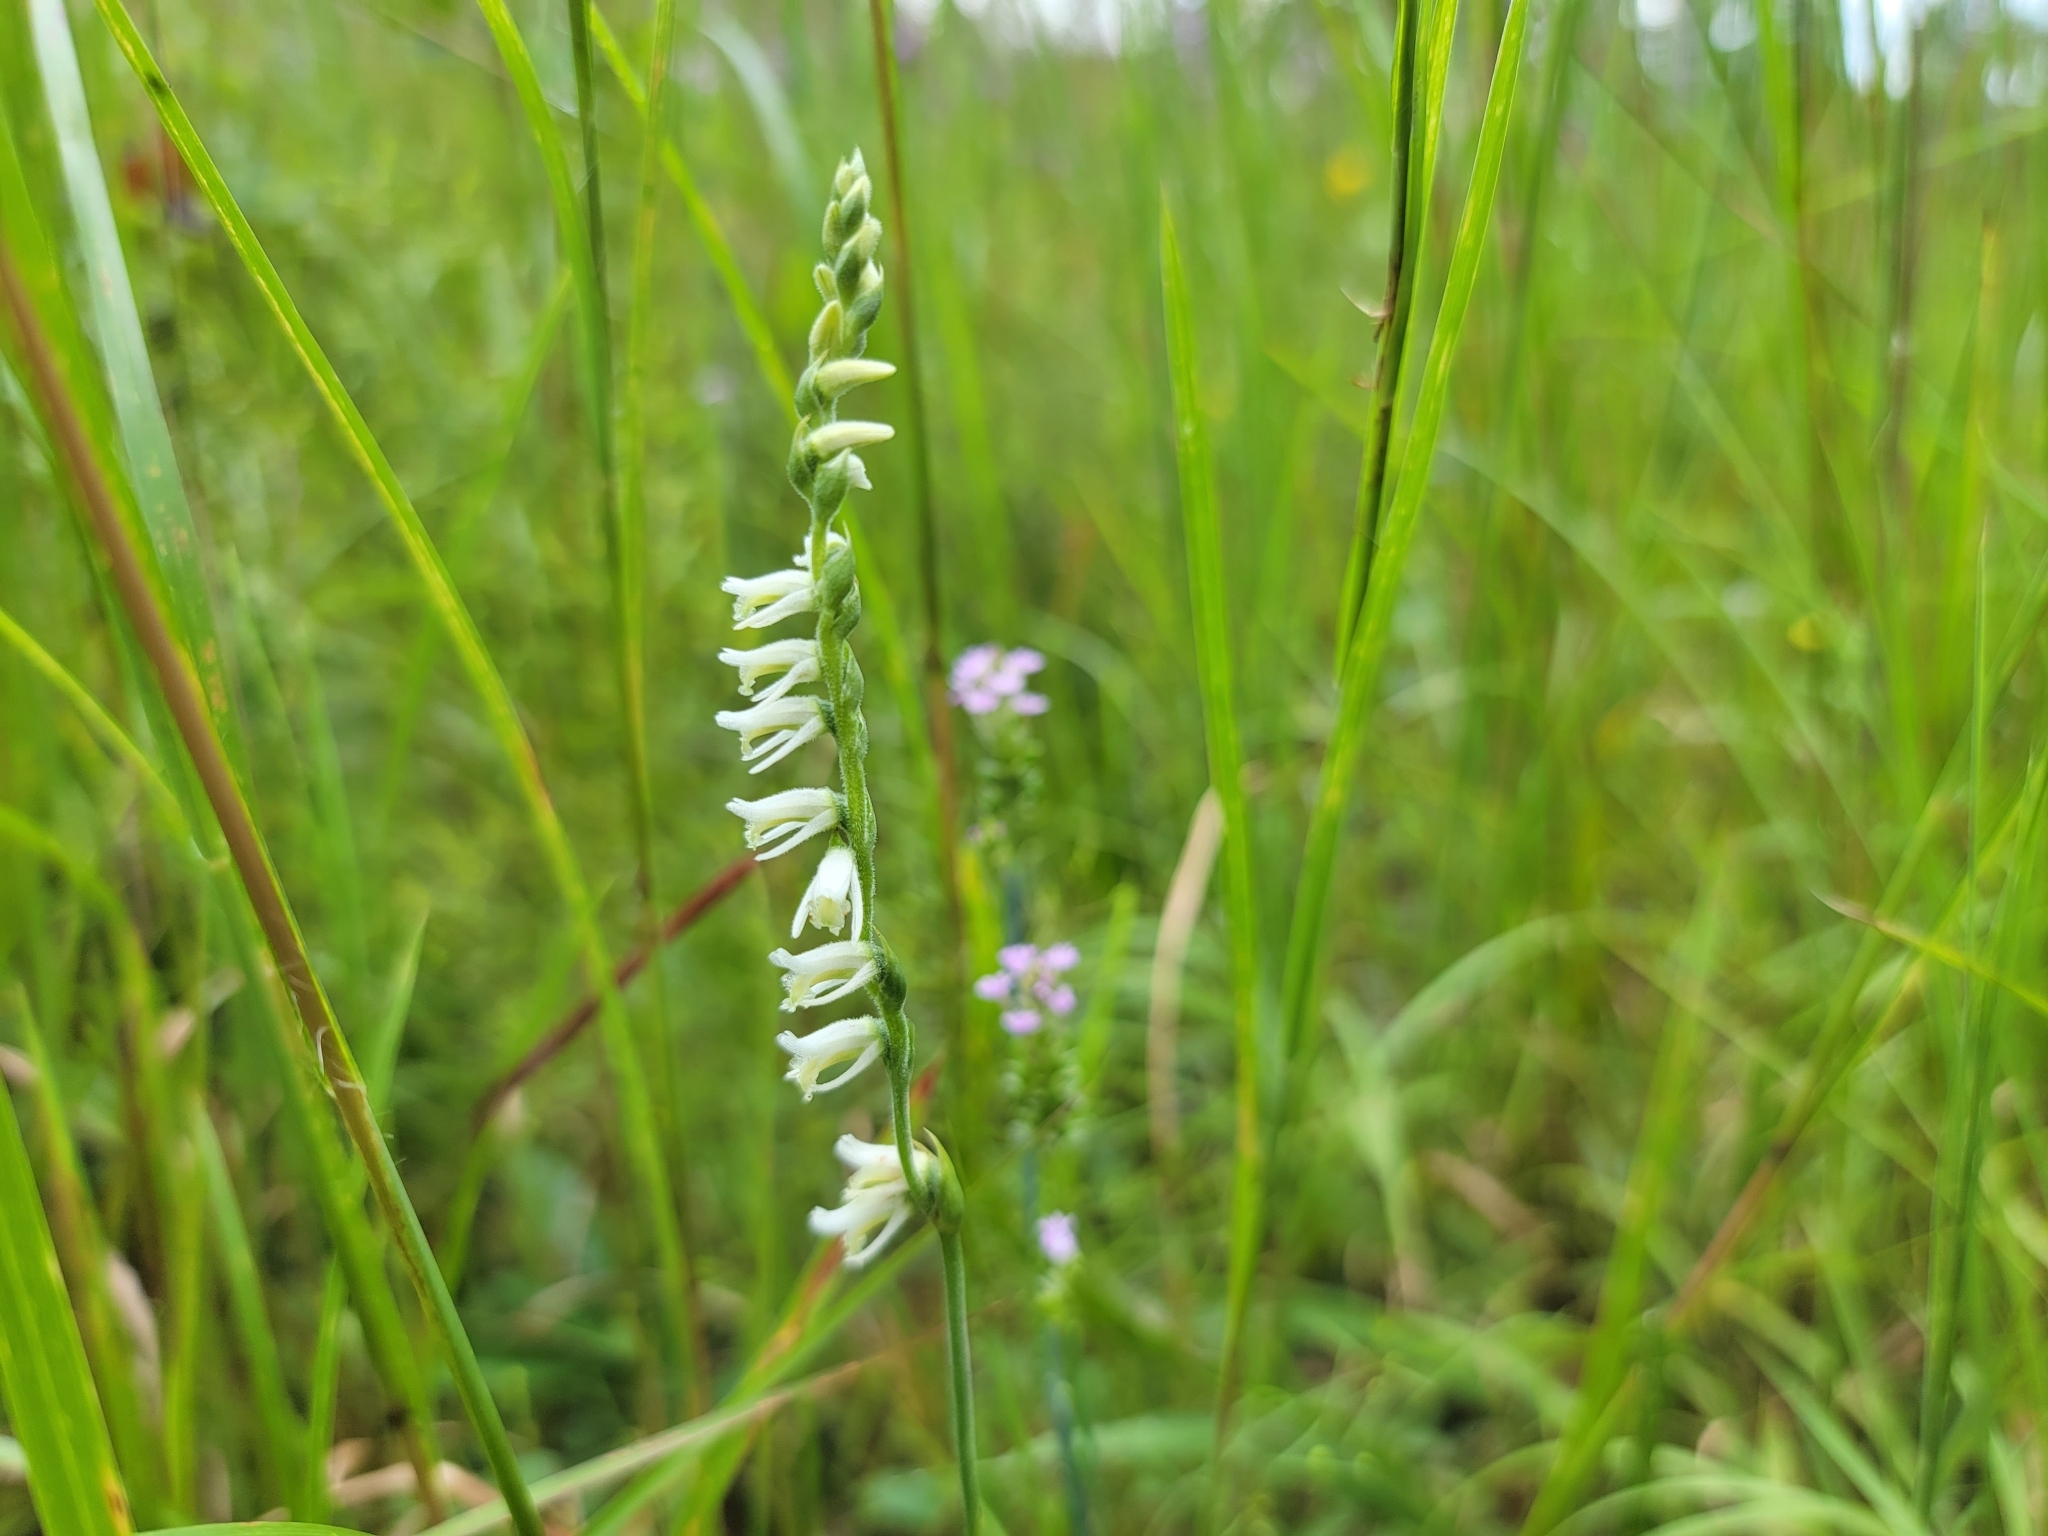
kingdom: Plantae
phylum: Tracheophyta
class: Liliopsida
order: Asparagales
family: Orchidaceae
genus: Spiranthes
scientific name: Spiranthes vernalis
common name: Spring ladies'-tresses
